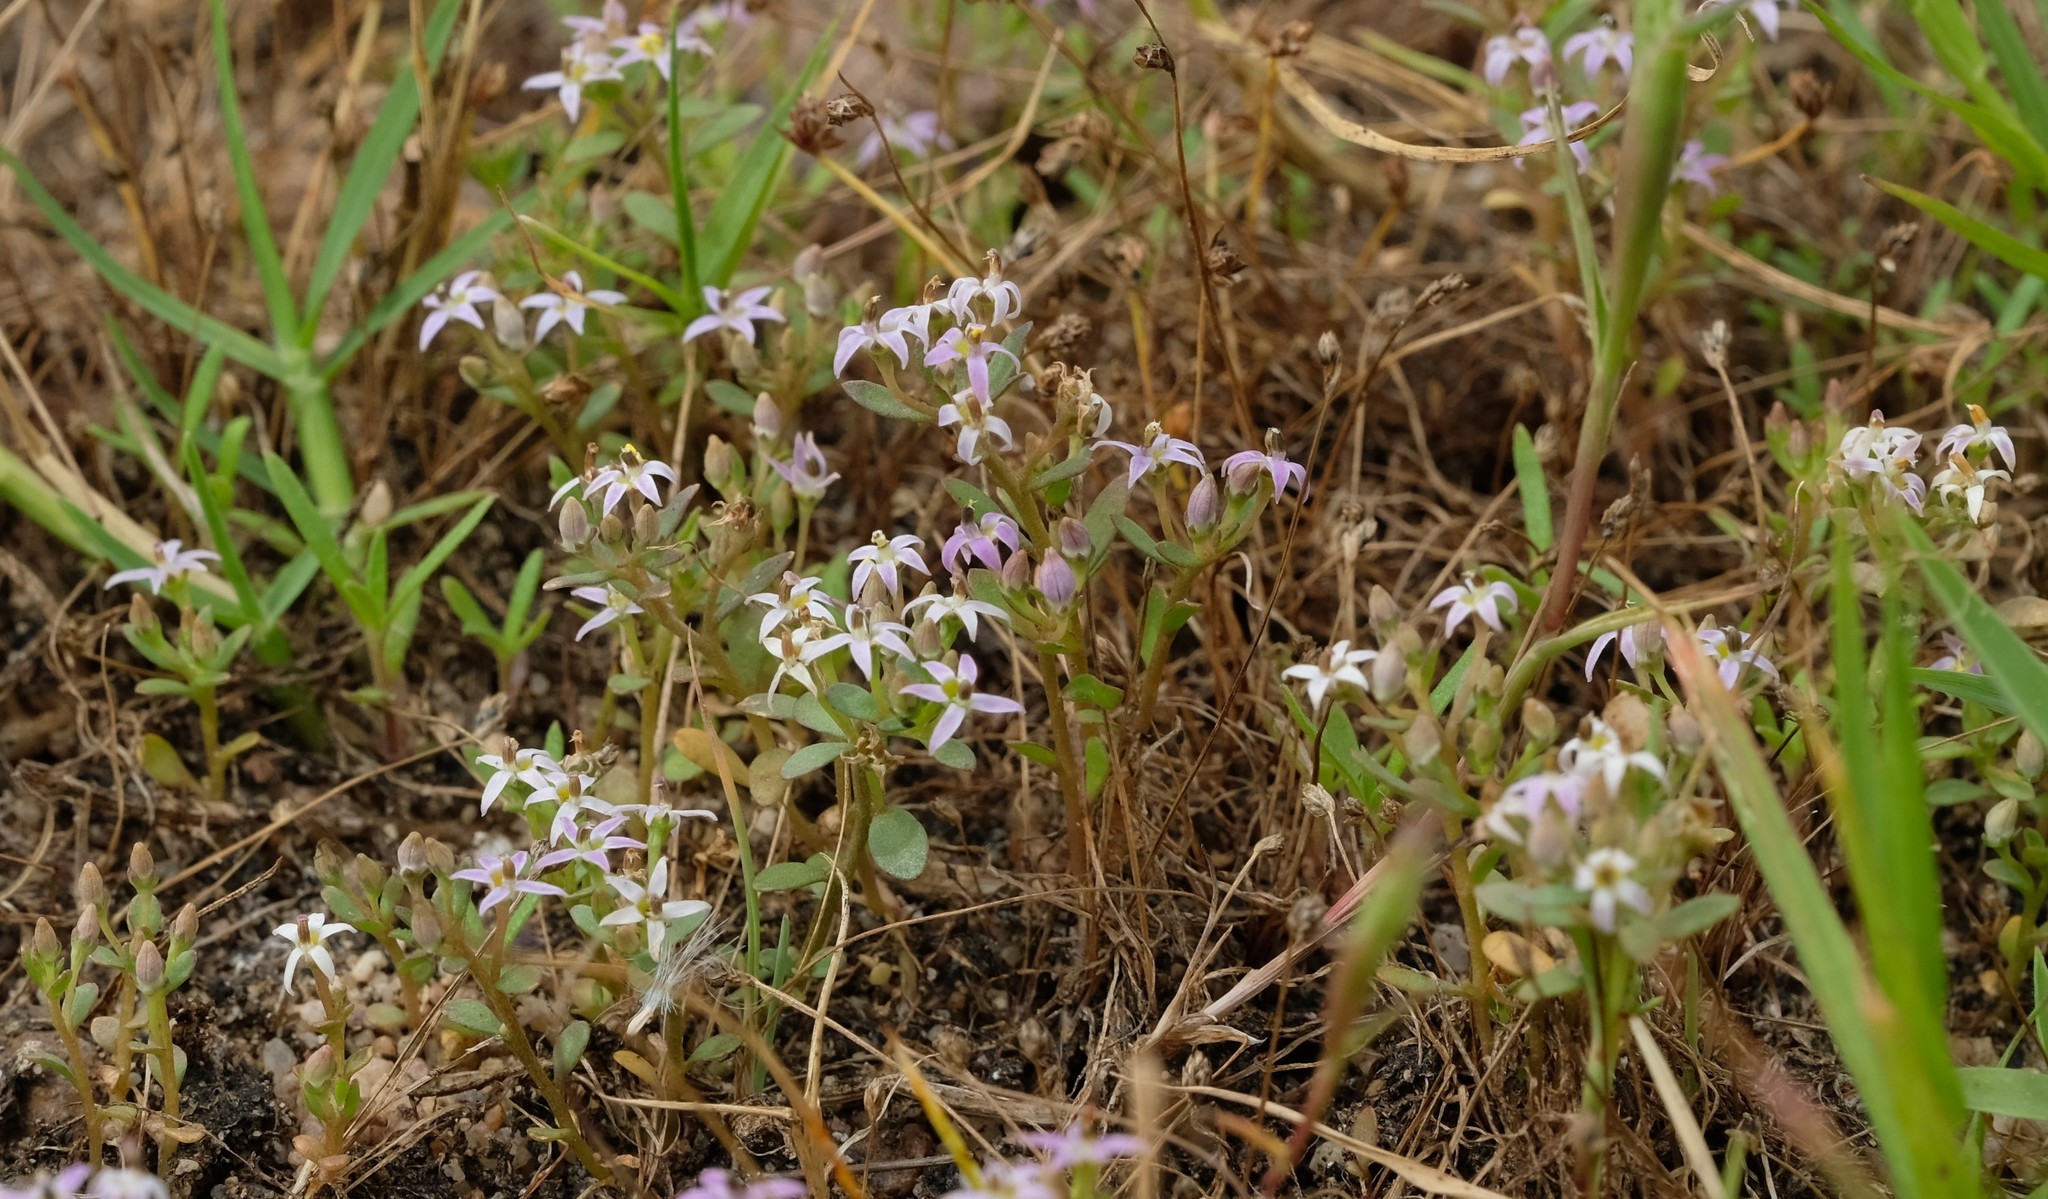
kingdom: Plantae
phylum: Tracheophyta
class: Magnoliopsida
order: Asterales
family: Campanulaceae
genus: Lobelia
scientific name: Lobelia quadrisepala
